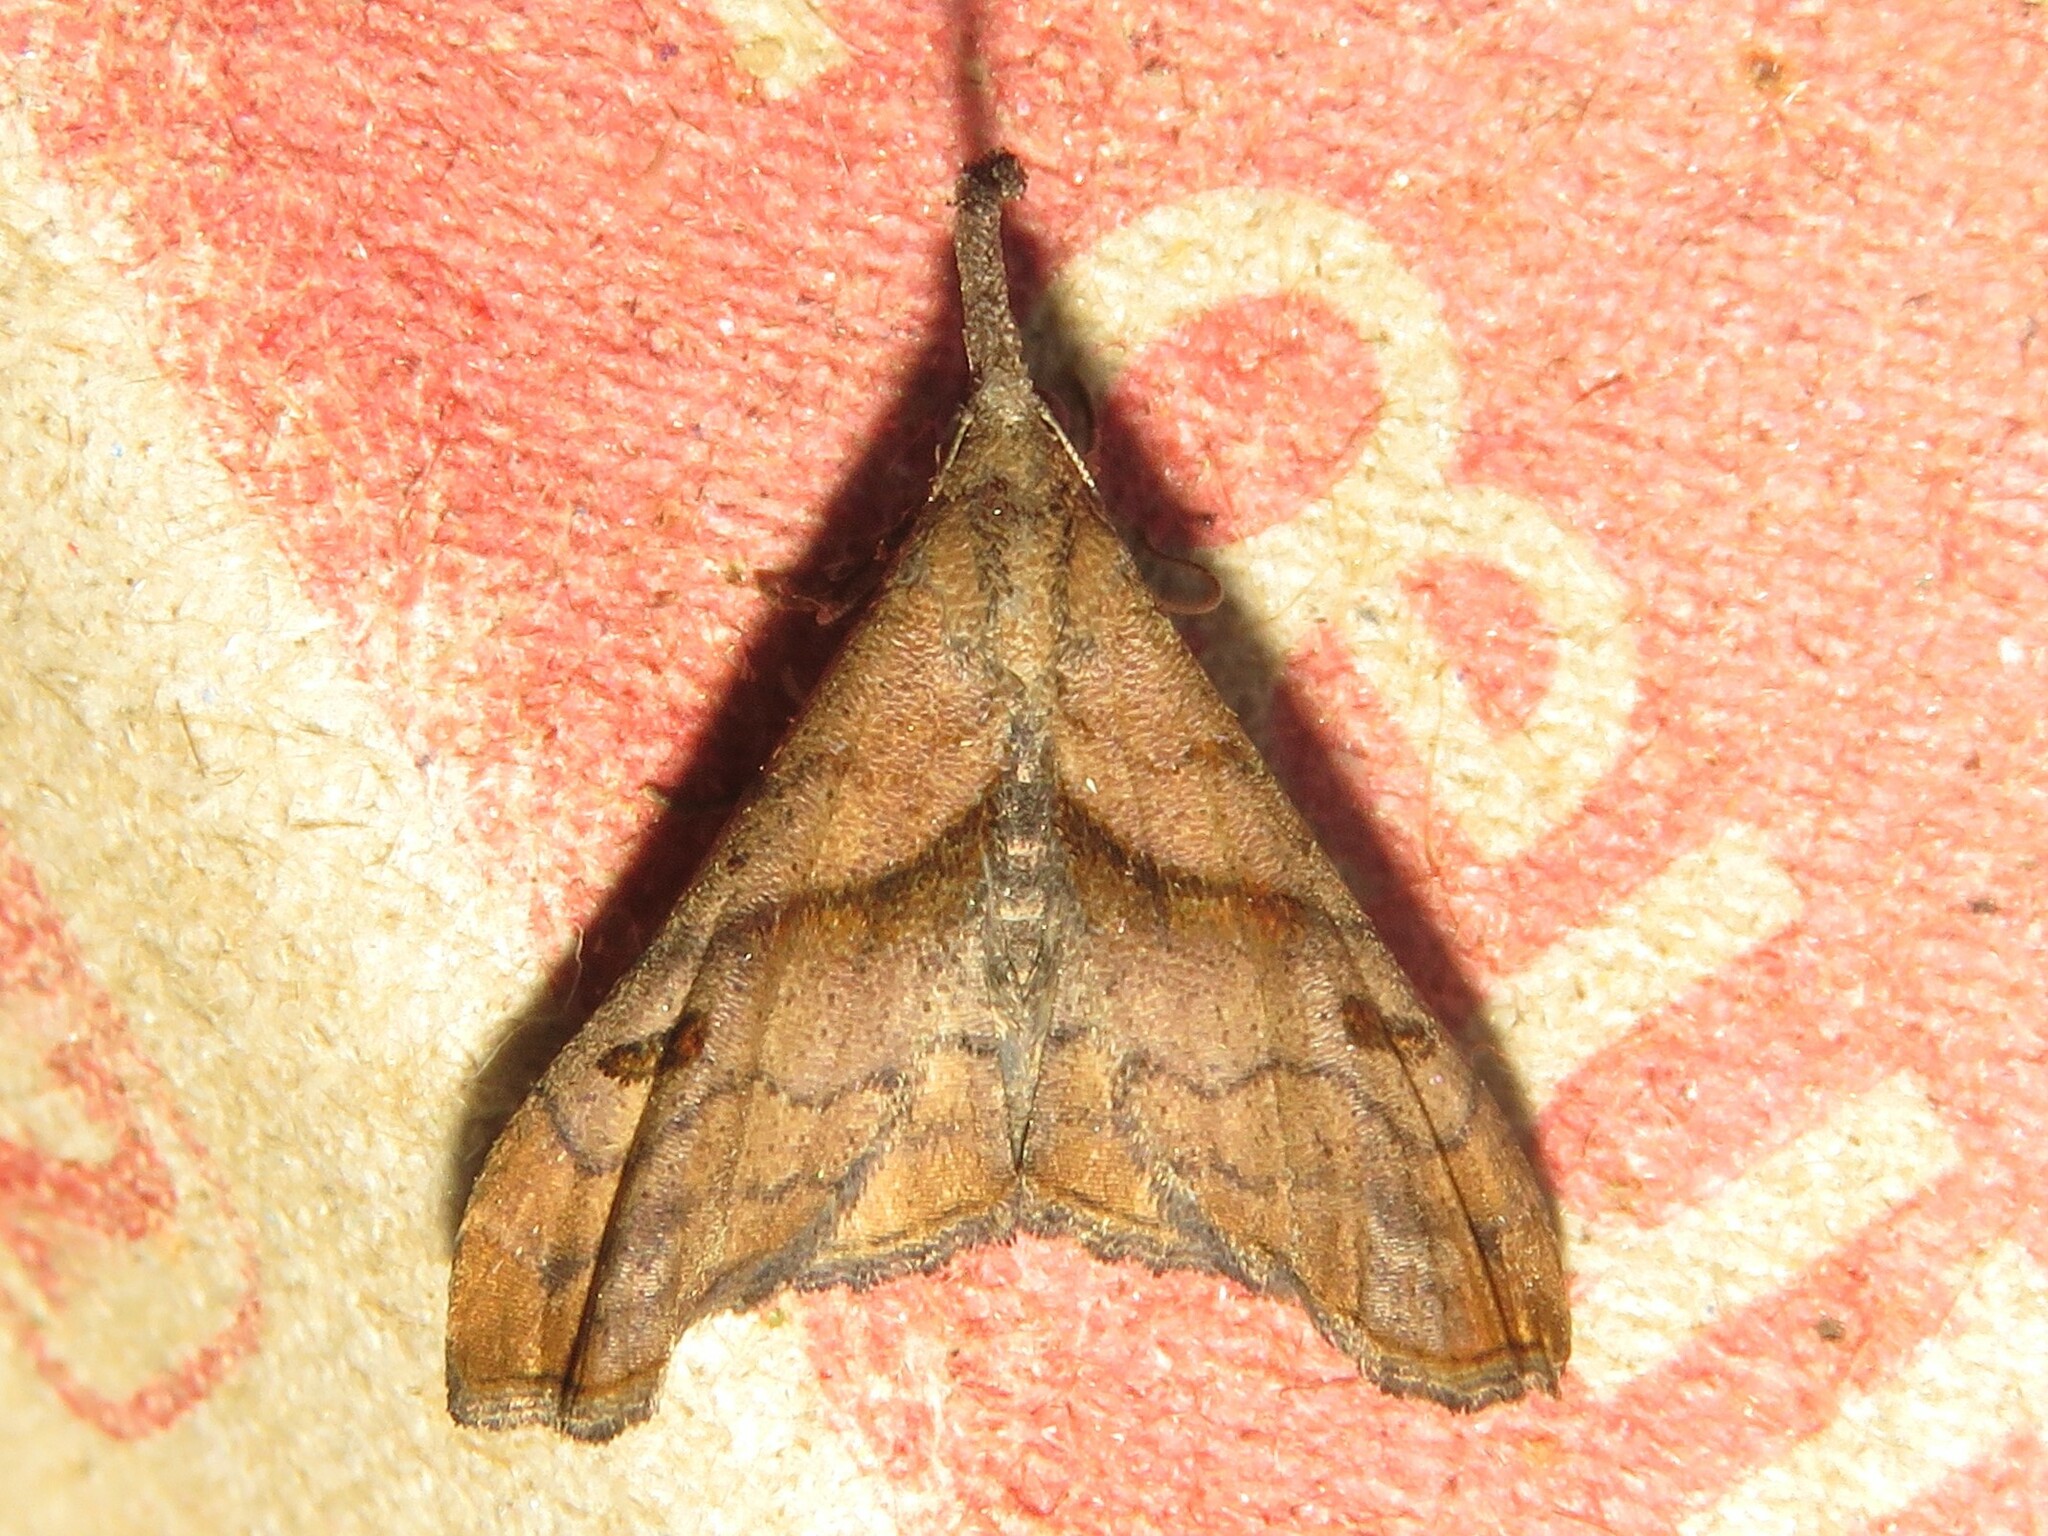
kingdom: Animalia
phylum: Arthropoda
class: Insecta
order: Lepidoptera
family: Erebidae
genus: Palthis
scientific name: Palthis angulalis
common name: Dark-spotted palthis moth
